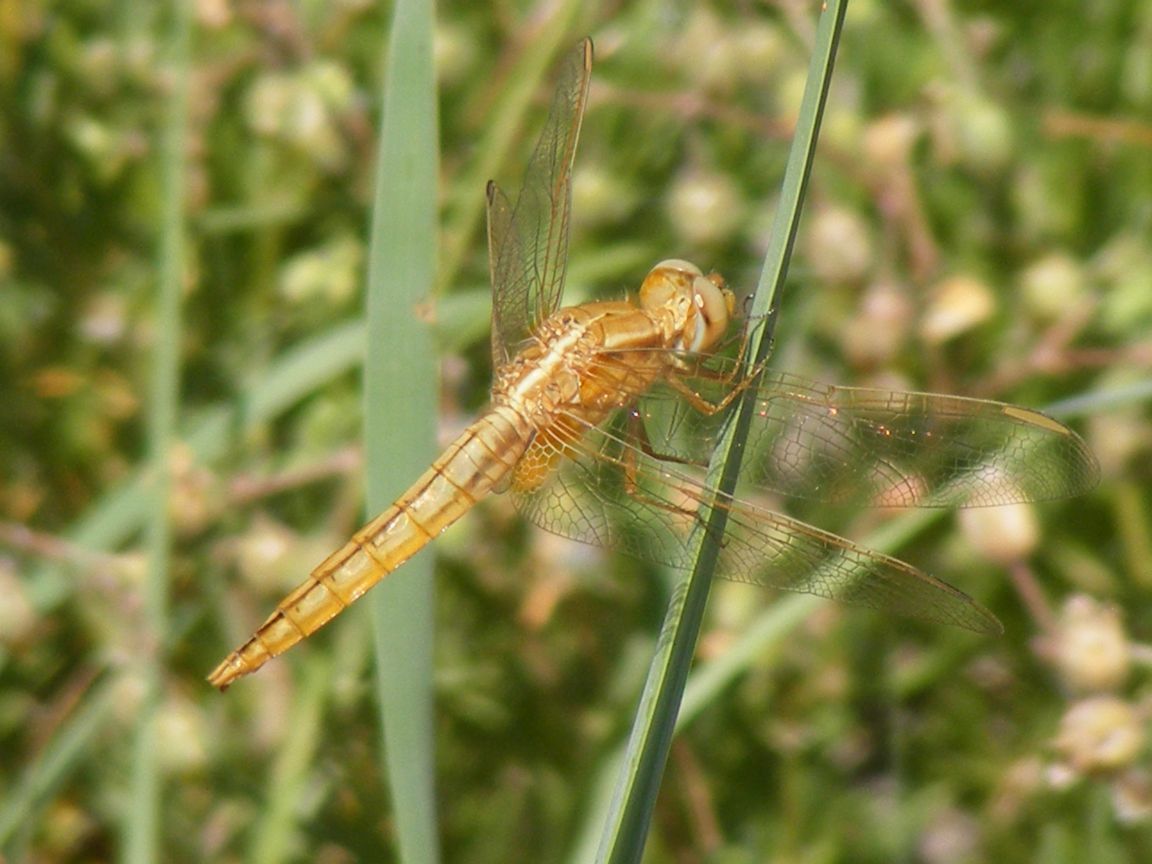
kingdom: Animalia
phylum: Arthropoda
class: Insecta
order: Odonata
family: Libellulidae
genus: Crocothemis
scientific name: Crocothemis erythraea
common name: Scarlet dragonfly
